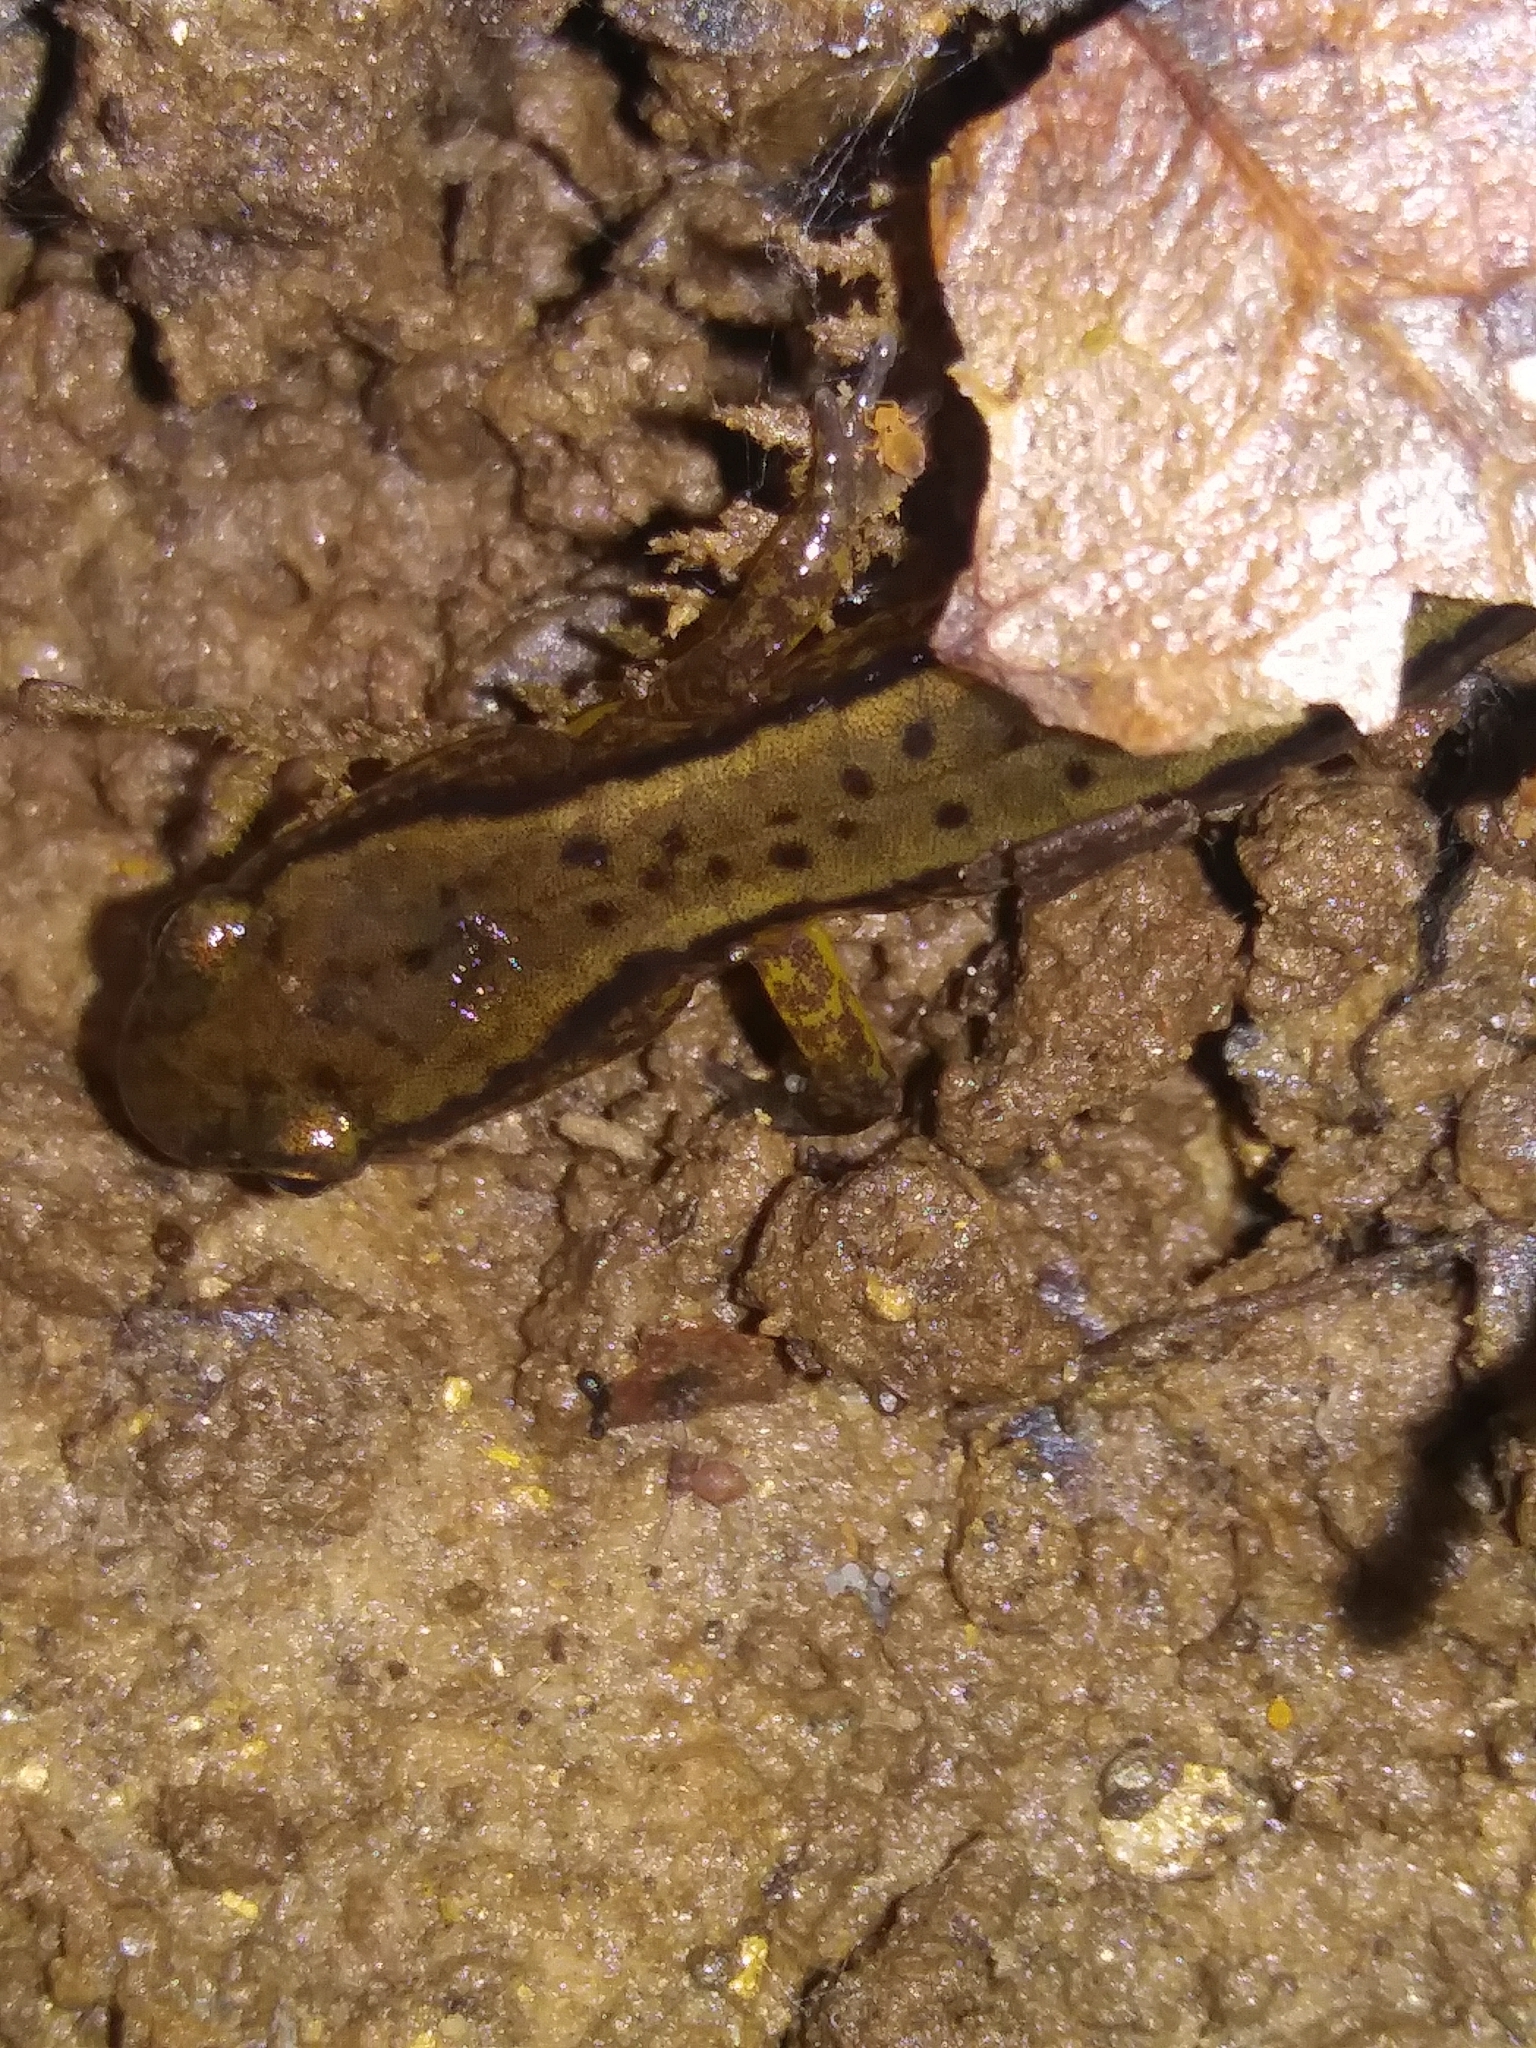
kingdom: Animalia
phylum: Chordata
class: Amphibia
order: Caudata
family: Plethodontidae
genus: Eurycea
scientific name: Eurycea bislineata
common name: Northern two-lined salamander
